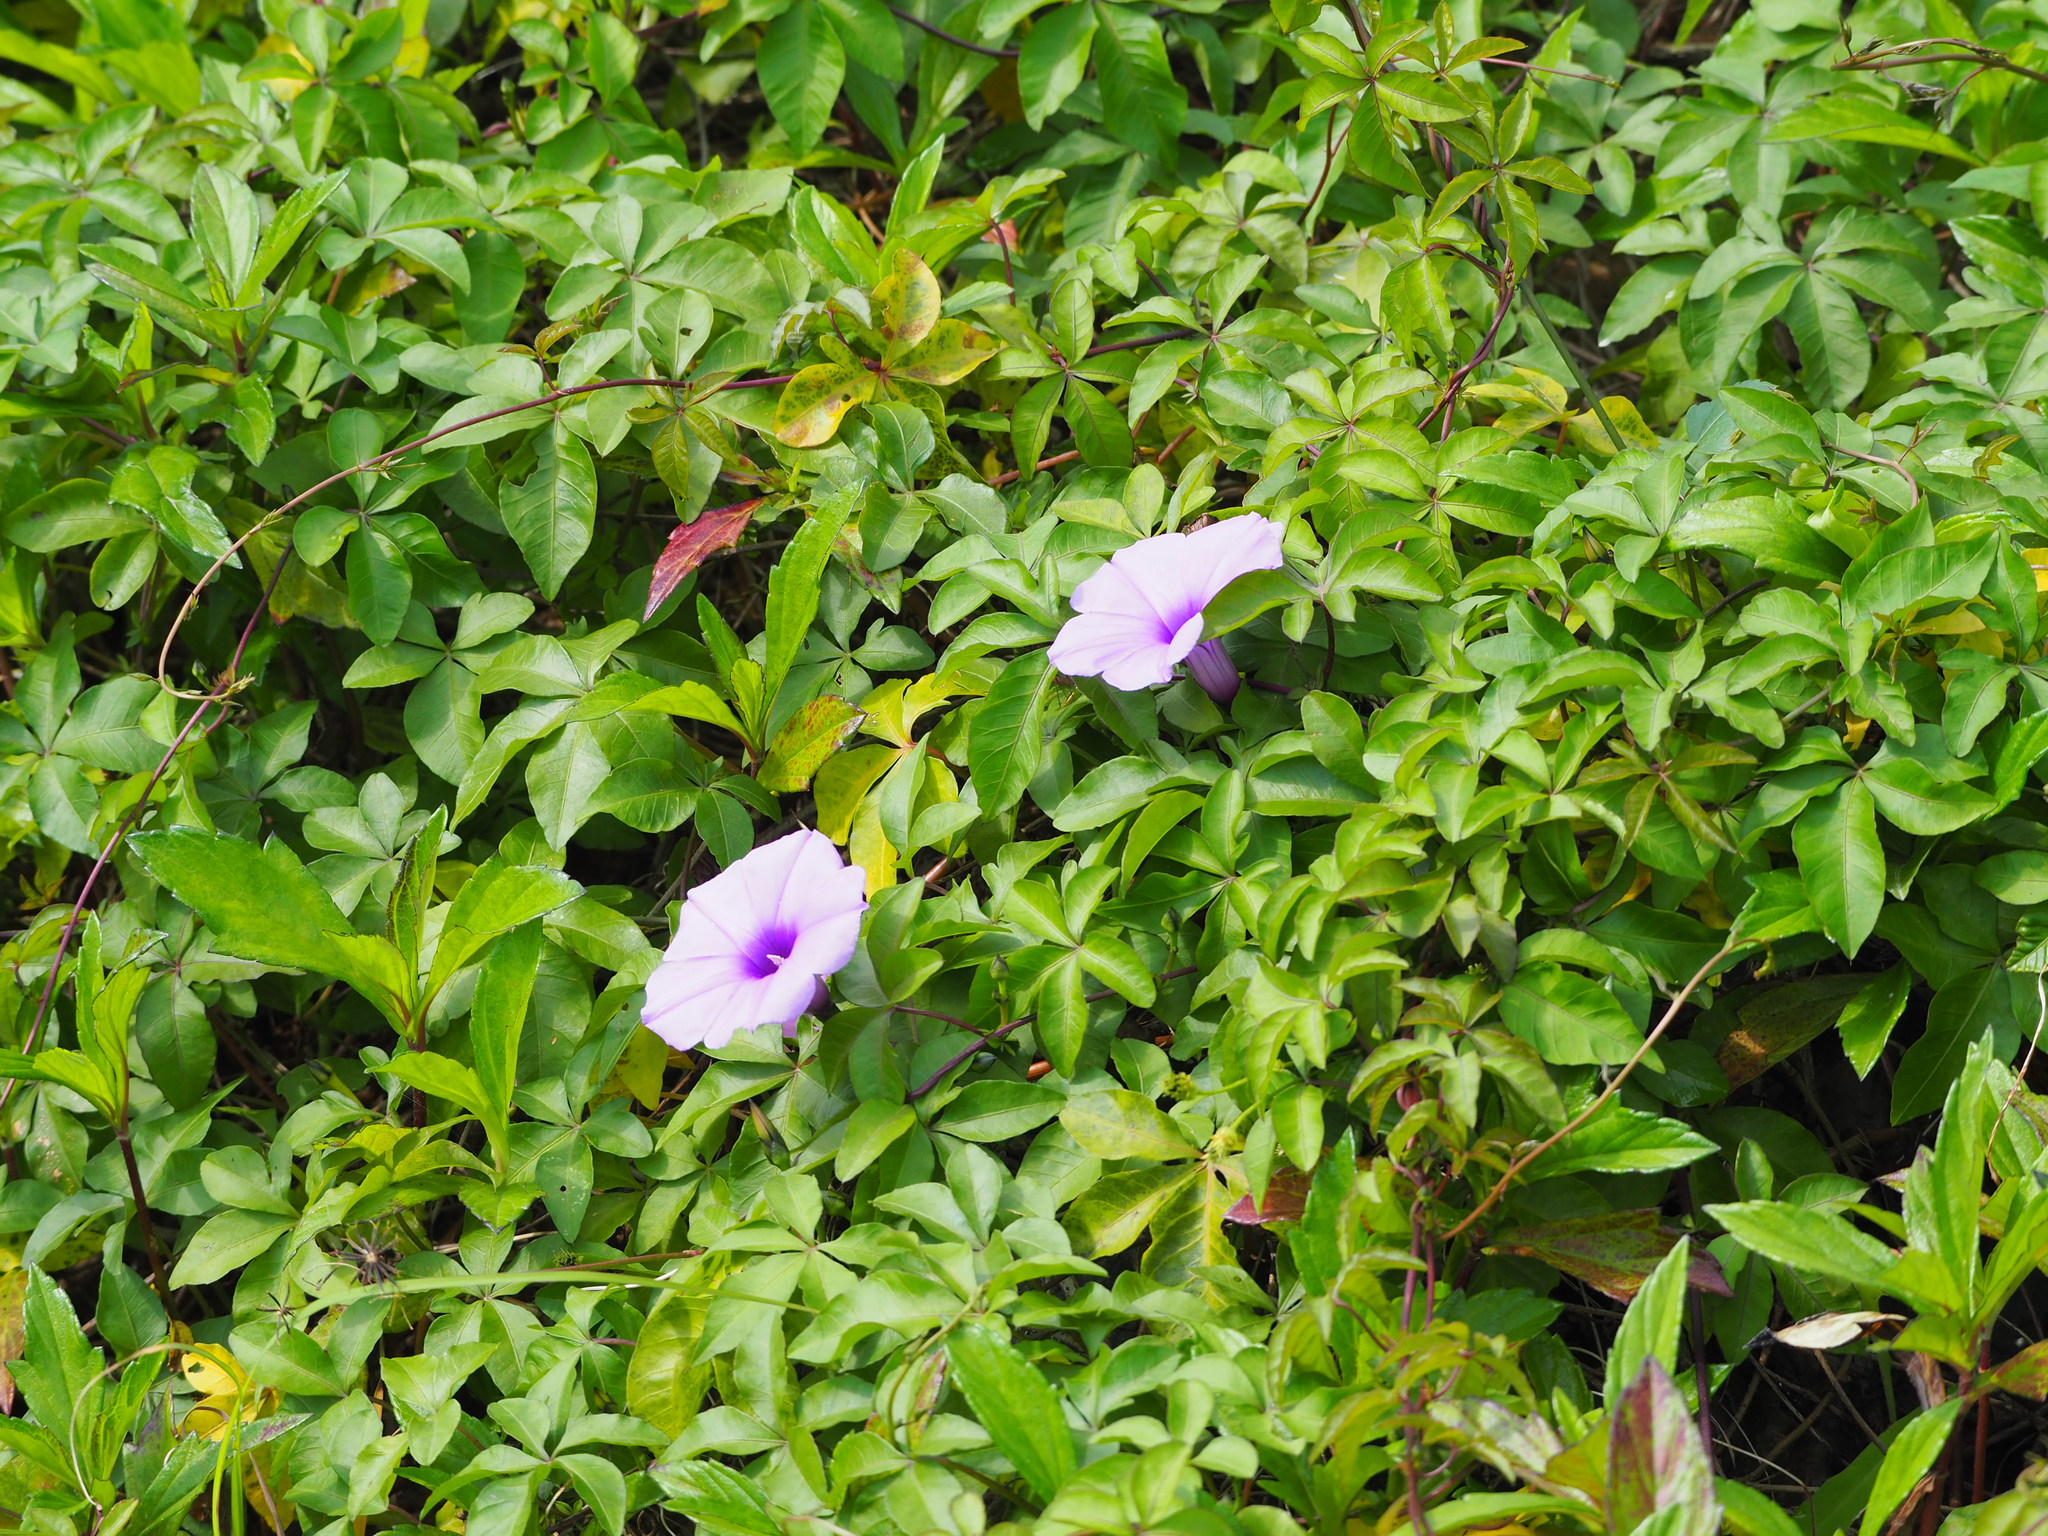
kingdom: Plantae
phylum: Tracheophyta
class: Magnoliopsida
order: Solanales
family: Convolvulaceae
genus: Ipomoea
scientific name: Ipomoea cairica
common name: Mile a minute vine
